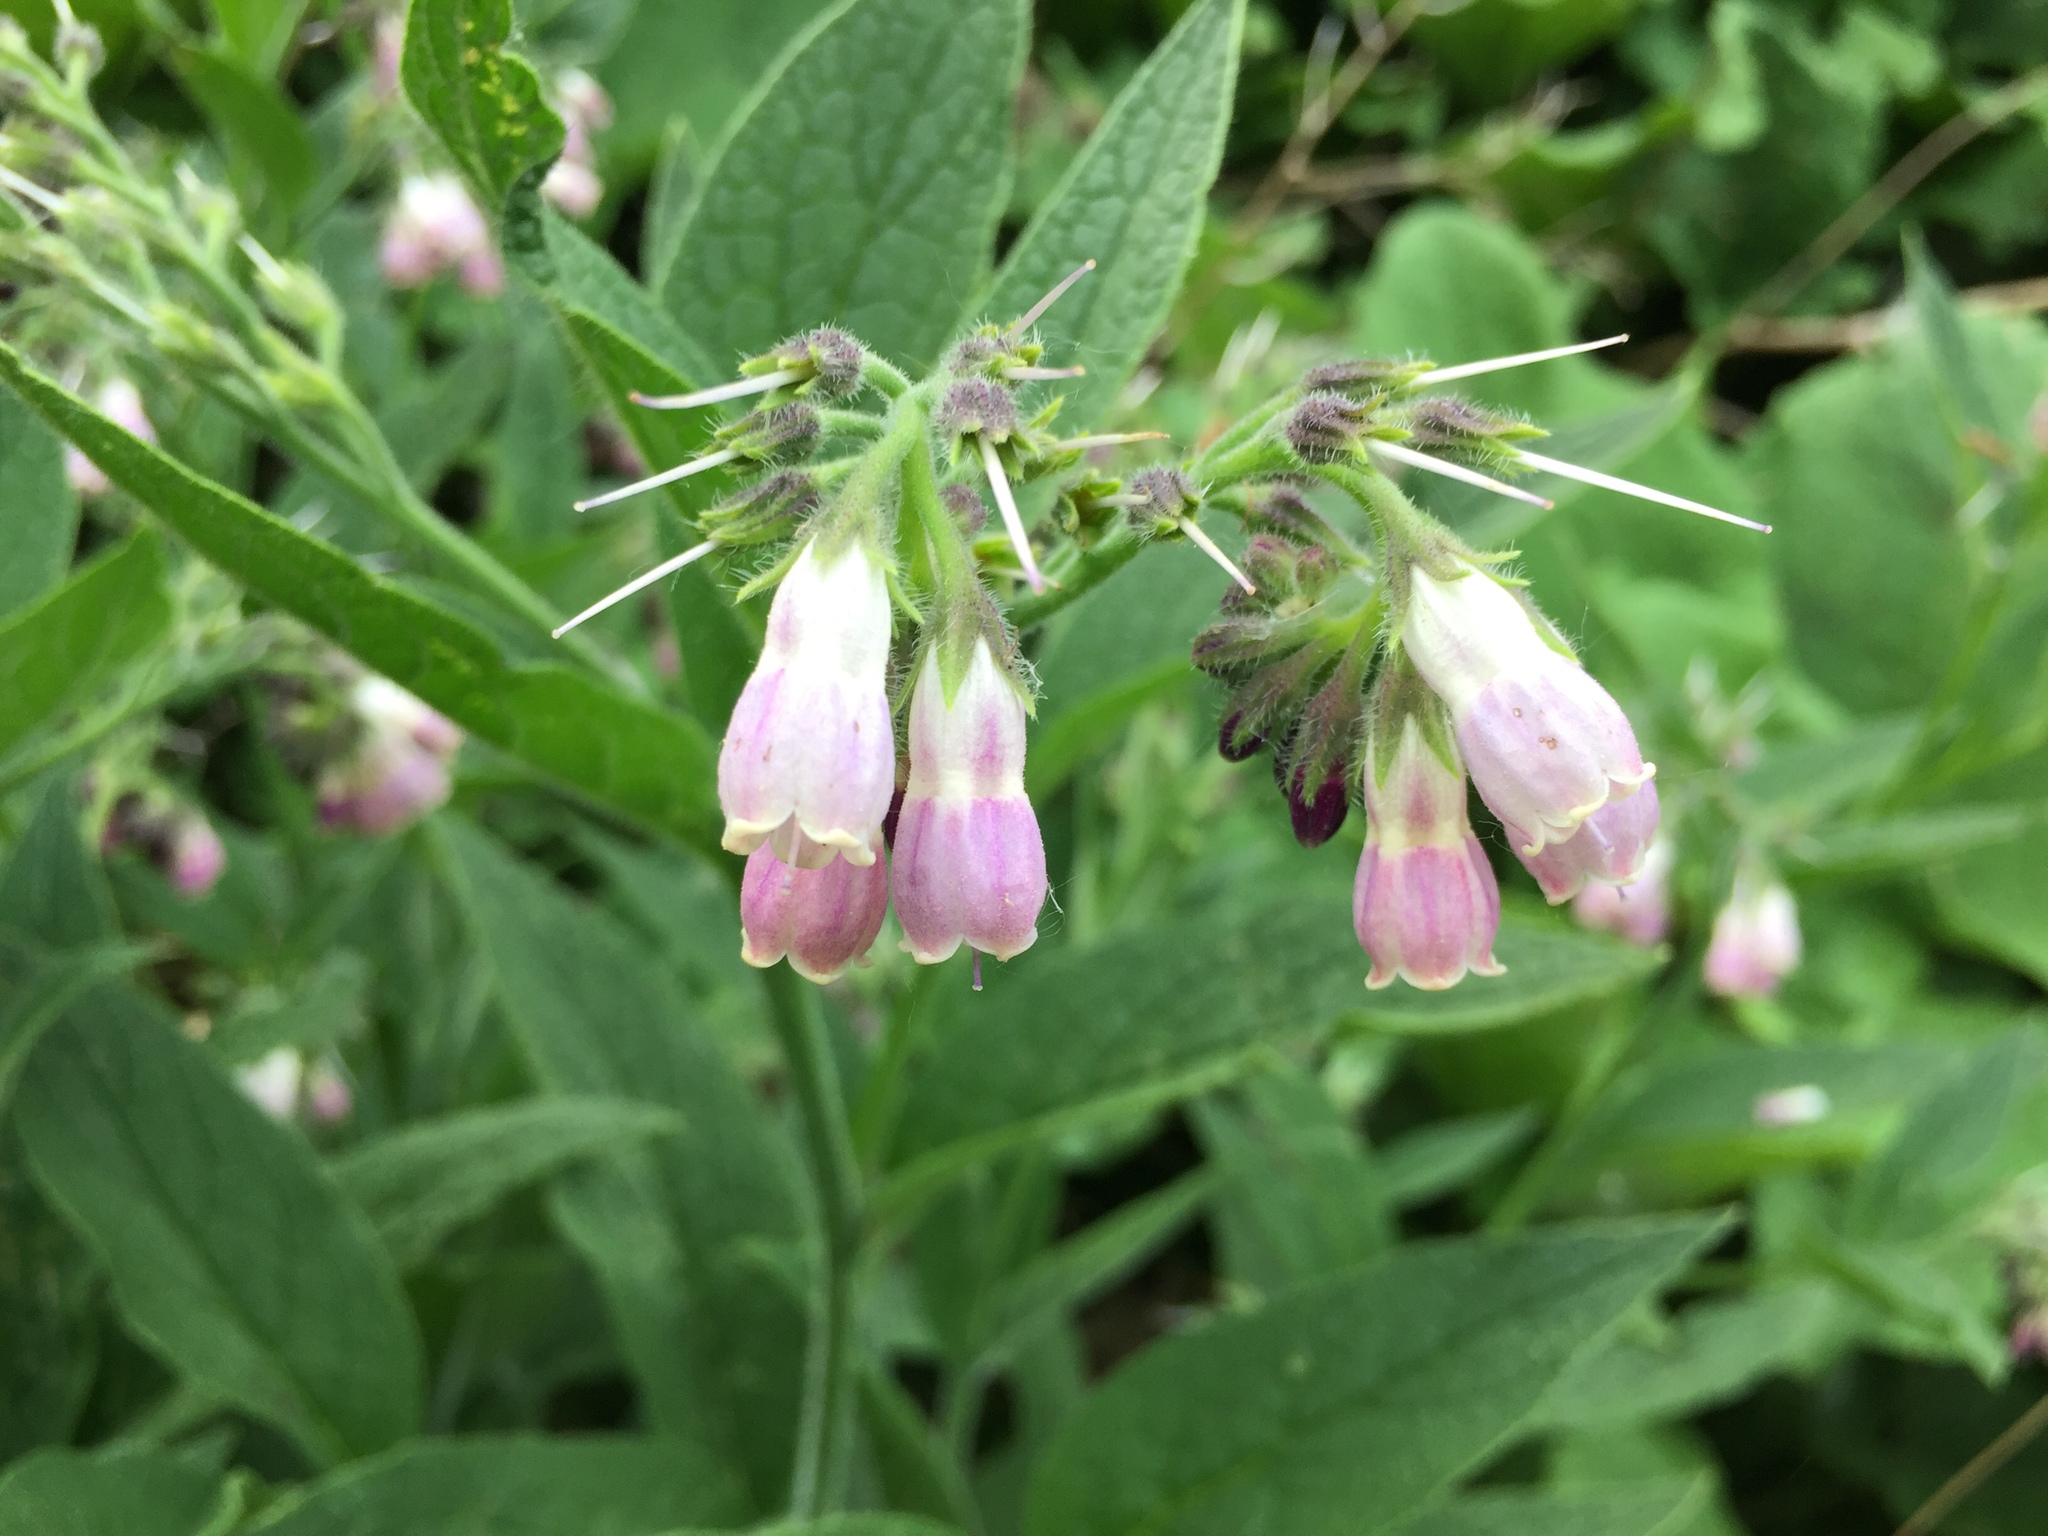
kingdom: Plantae
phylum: Tracheophyta
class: Magnoliopsida
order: Boraginales
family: Boraginaceae
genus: Symphytum
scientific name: Symphytum officinale
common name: Common comfrey
